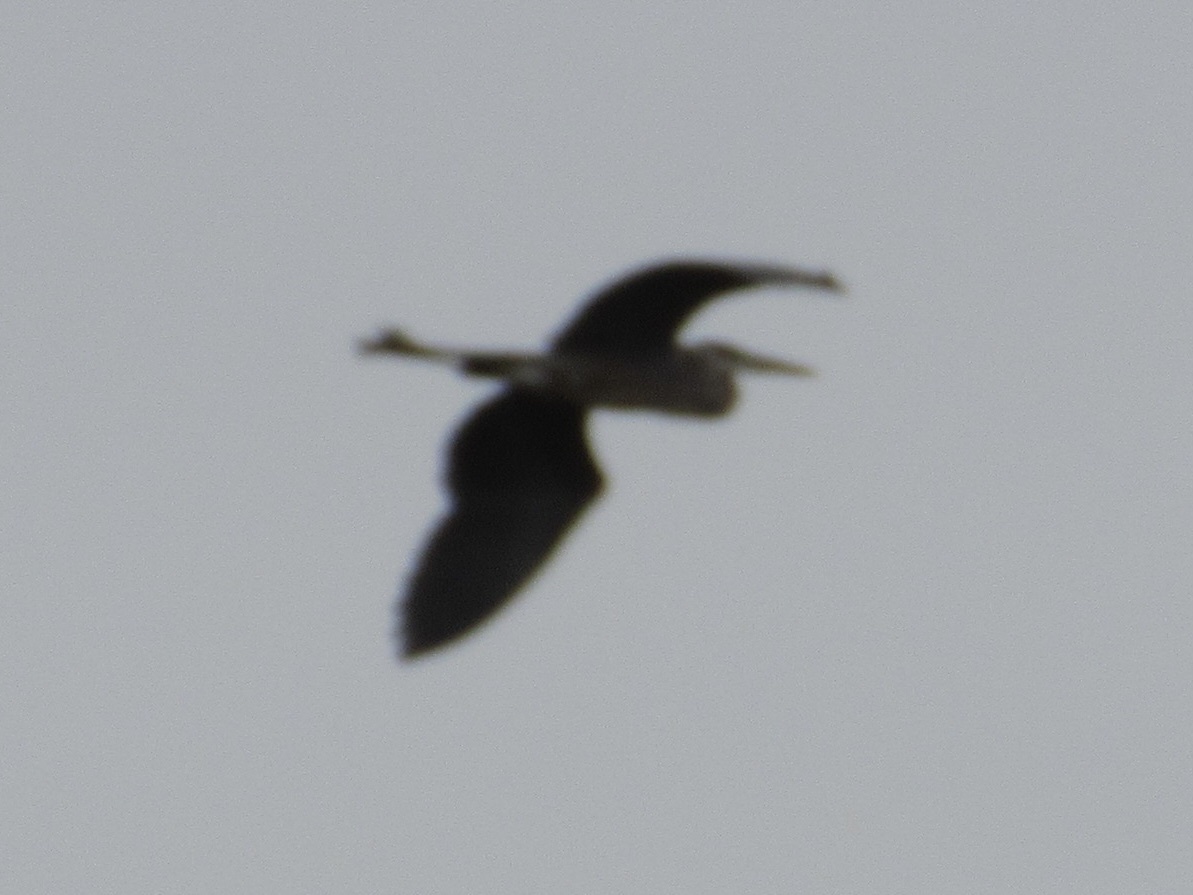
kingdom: Animalia
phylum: Chordata
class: Aves
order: Pelecaniformes
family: Ardeidae
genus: Ardea
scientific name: Ardea herodias
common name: Great blue heron
